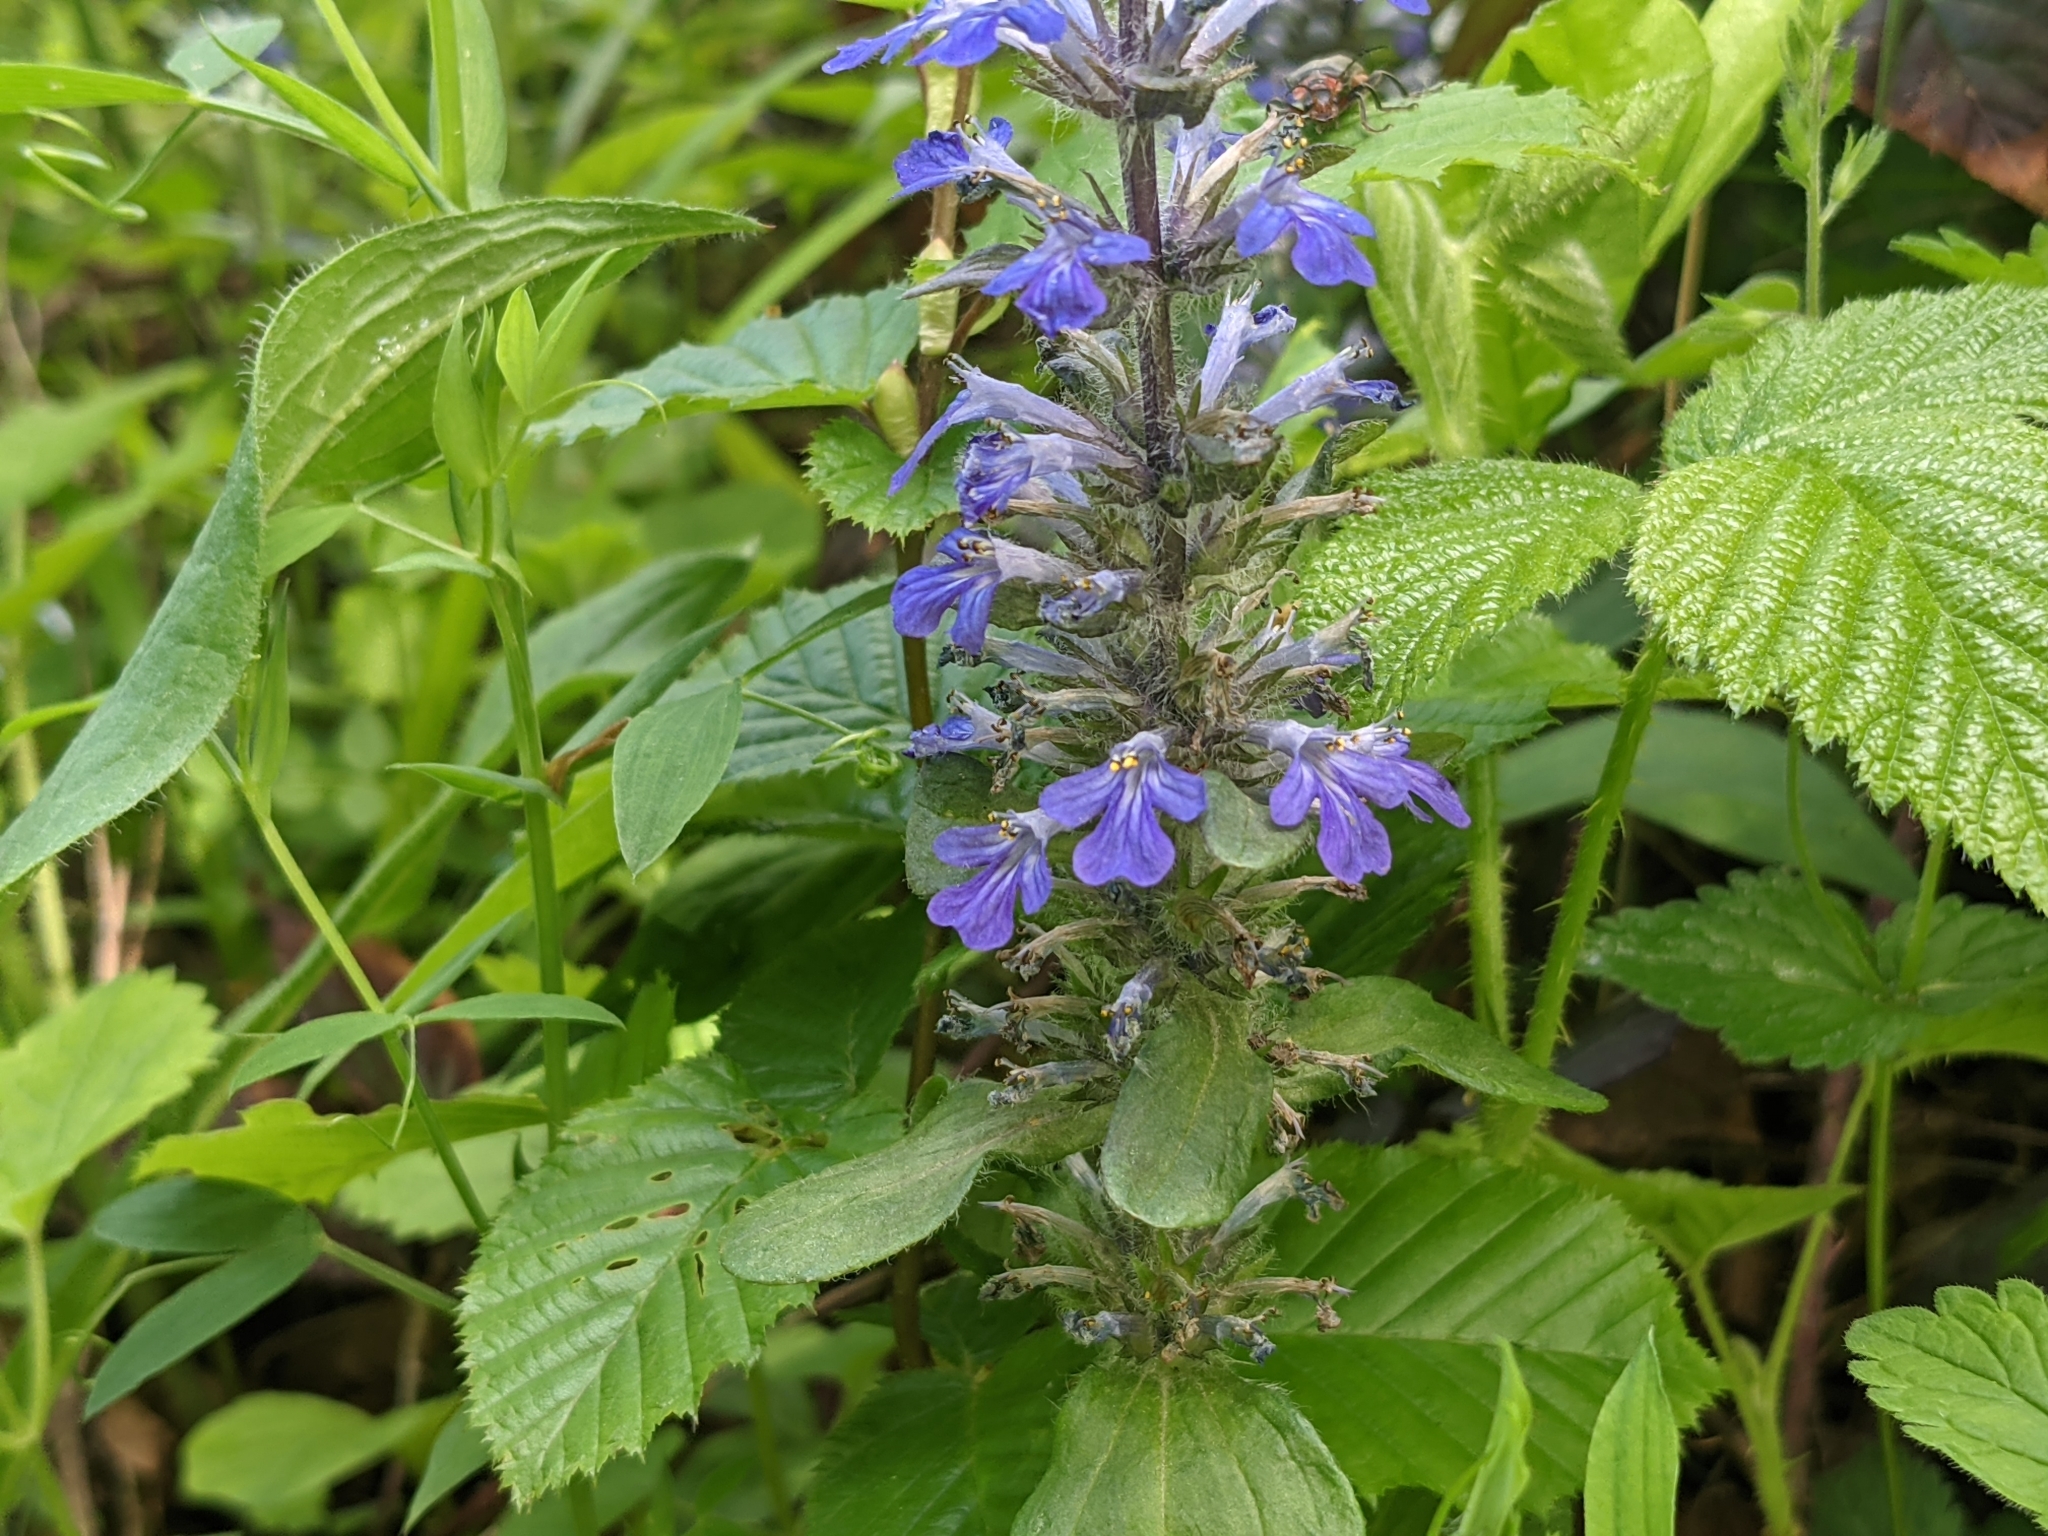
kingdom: Plantae
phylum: Tracheophyta
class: Magnoliopsida
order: Lamiales
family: Lamiaceae
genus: Ajuga
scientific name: Ajuga reptans
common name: Bugle
